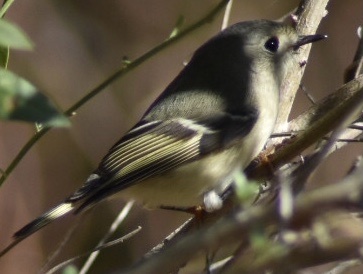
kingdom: Animalia
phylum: Chordata
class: Aves
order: Passeriformes
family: Regulidae
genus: Regulus
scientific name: Regulus calendula
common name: Ruby-crowned kinglet
